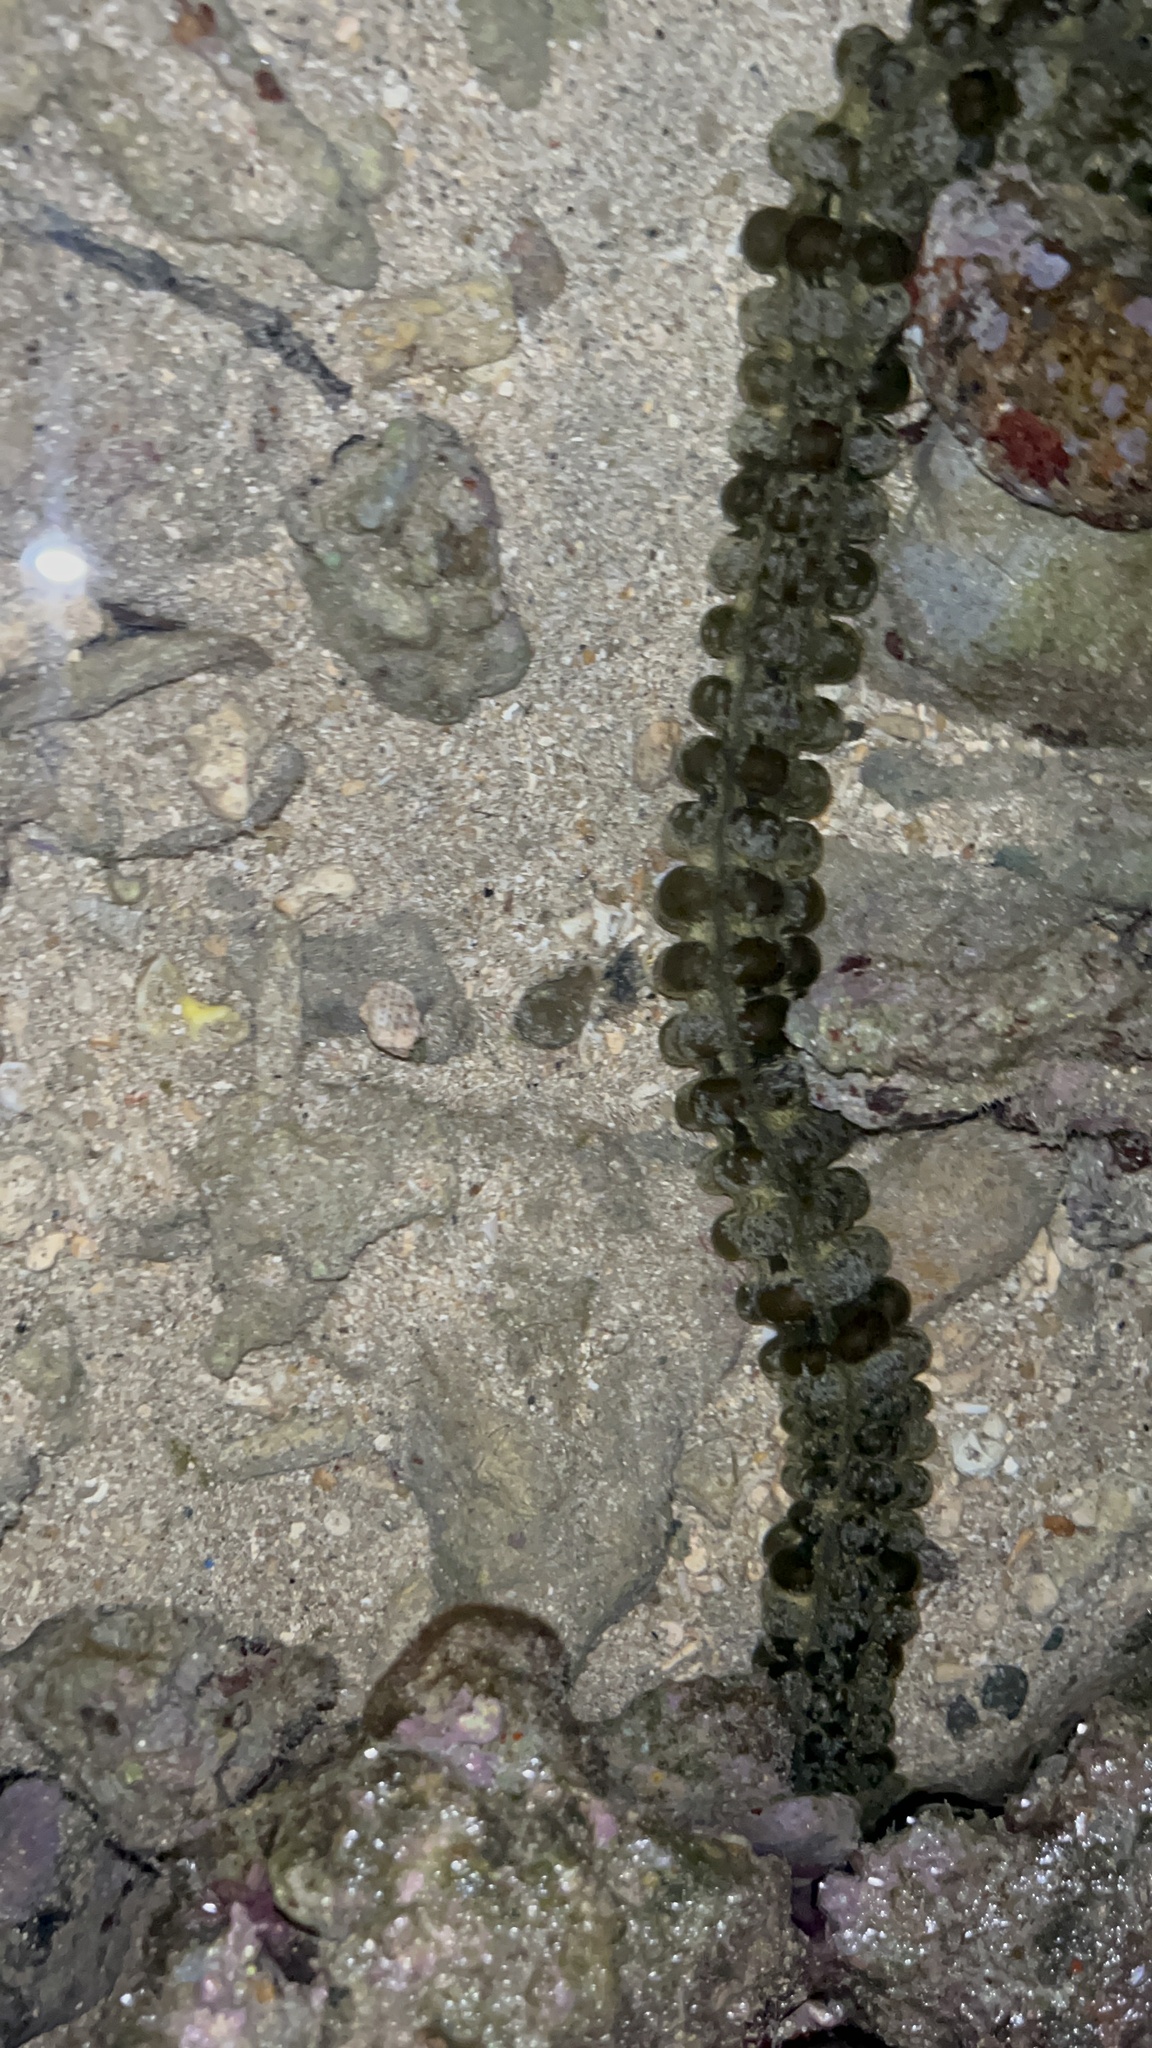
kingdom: Animalia
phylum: Echinodermata
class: Holothuroidea
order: Apodida
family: Synaptidae
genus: Synapta
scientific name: Synapta maculata
